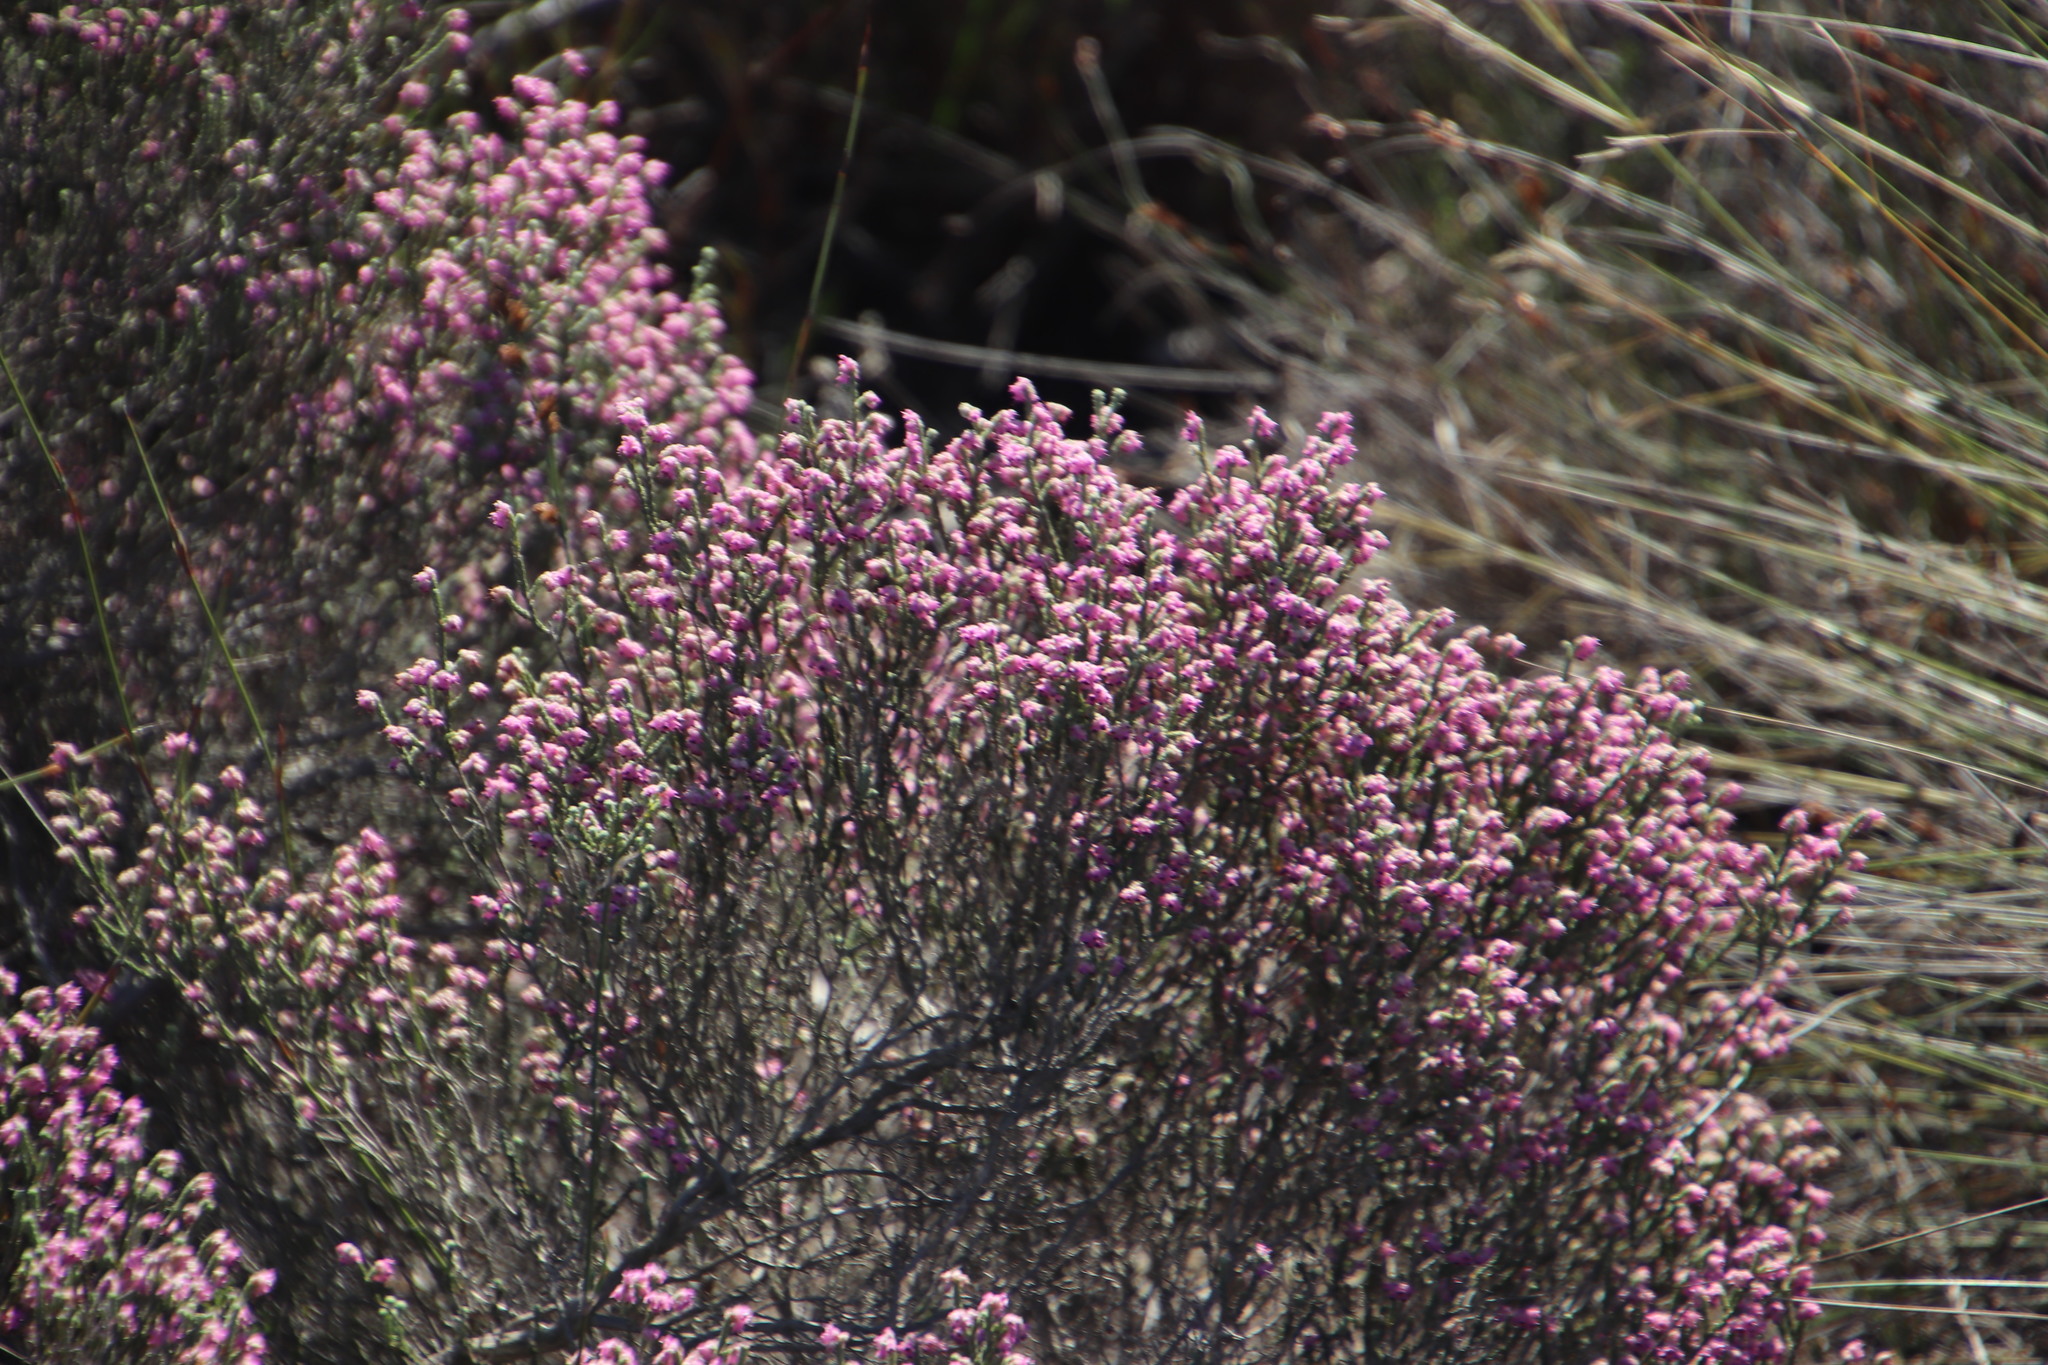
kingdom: Plantae
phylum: Tracheophyta
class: Magnoliopsida
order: Ericales
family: Ericaceae
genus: Erica
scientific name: Erica plumosa
